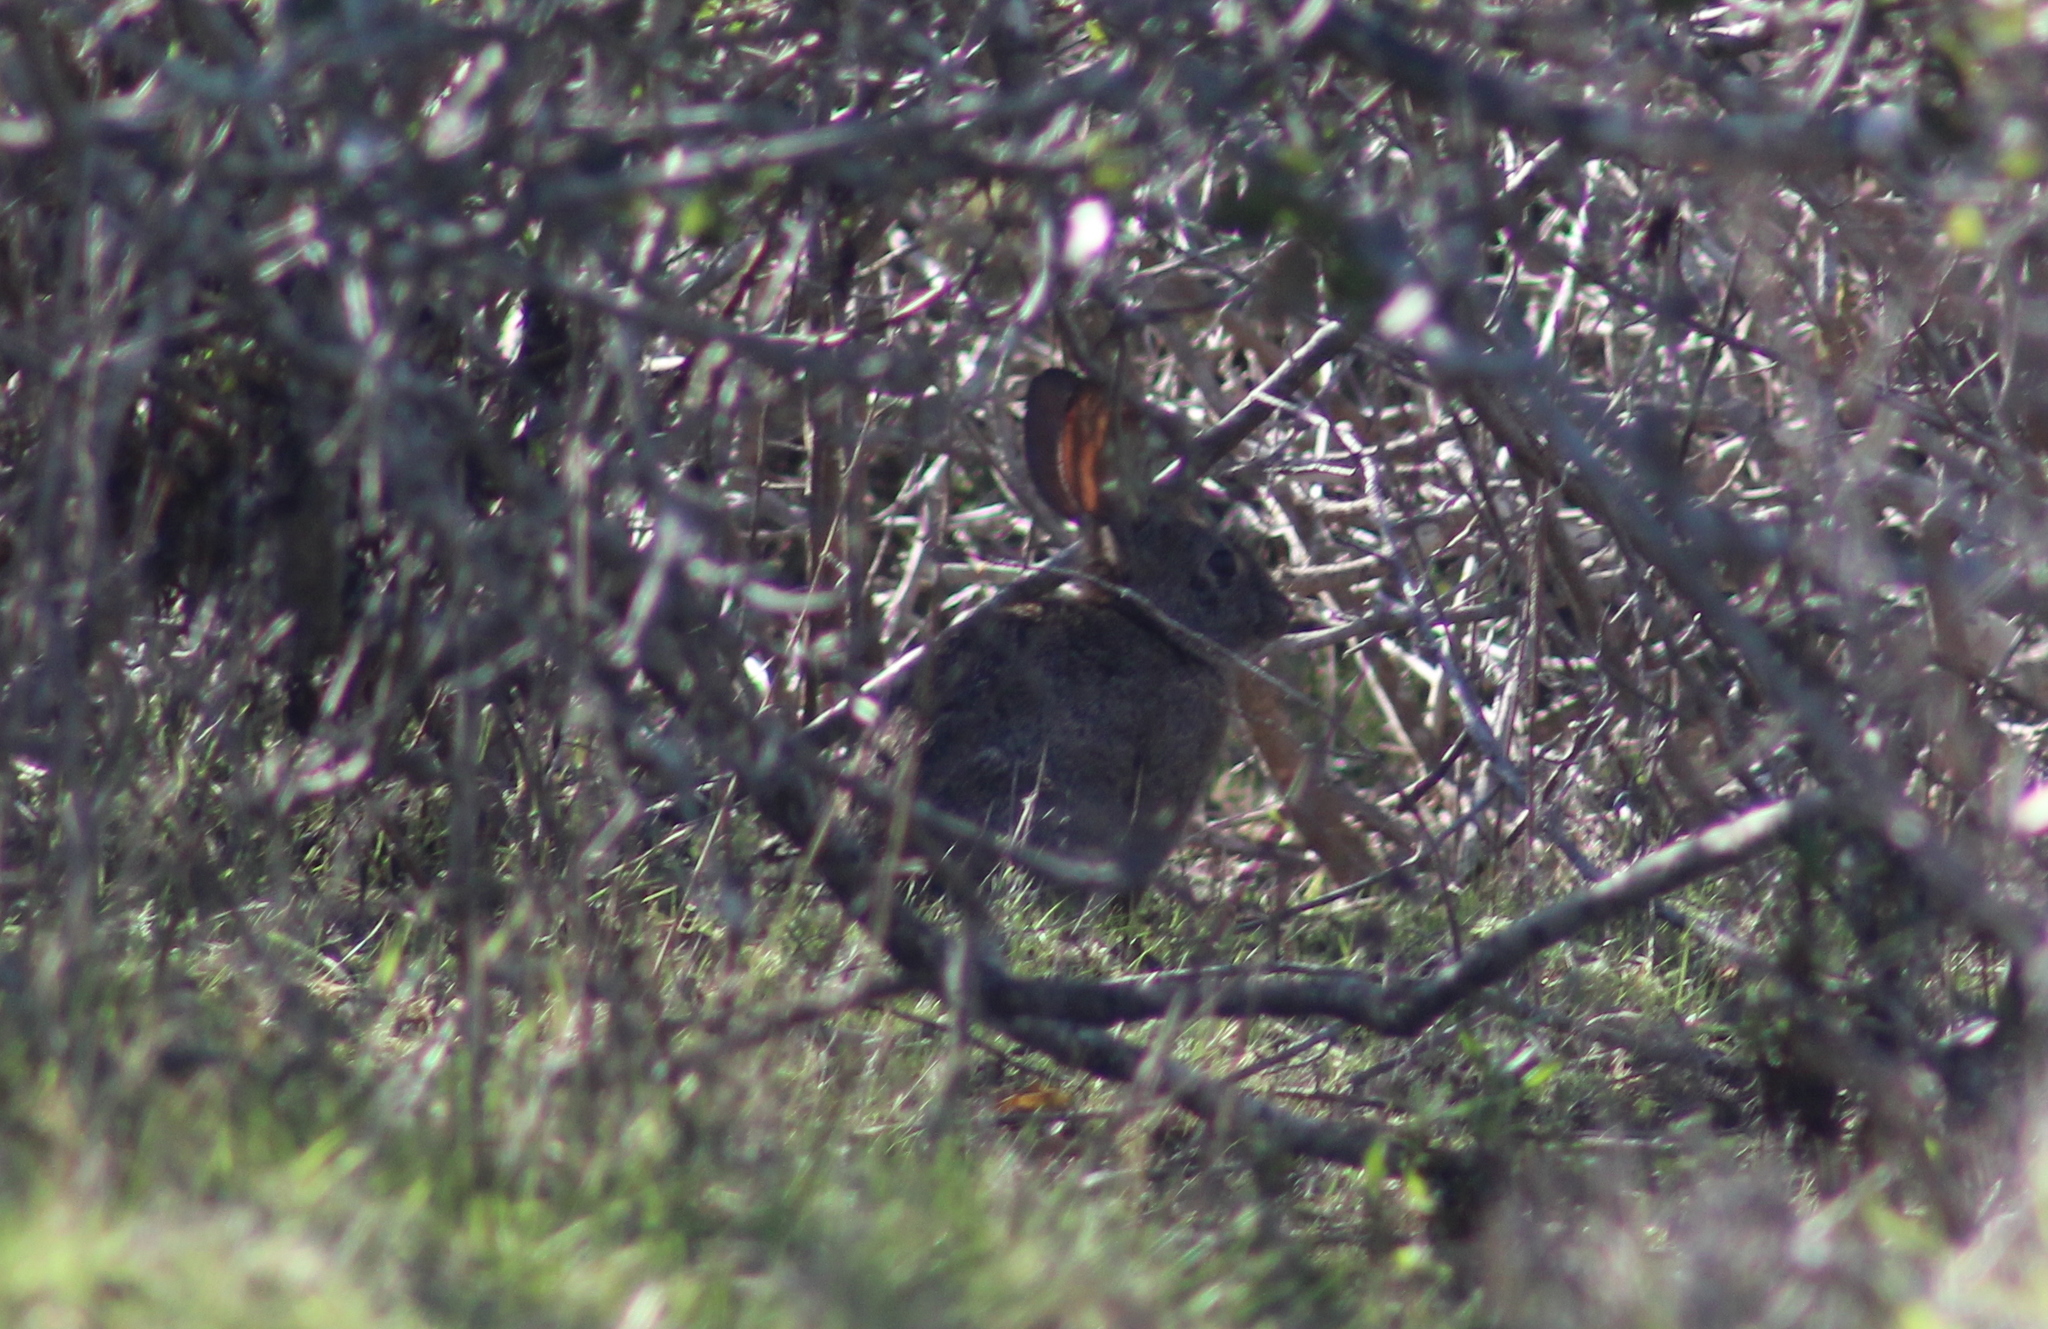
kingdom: Animalia
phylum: Chordata
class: Mammalia
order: Lagomorpha
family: Leporidae
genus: Sylvilagus
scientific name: Sylvilagus bachmani
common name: Brush rabbit
